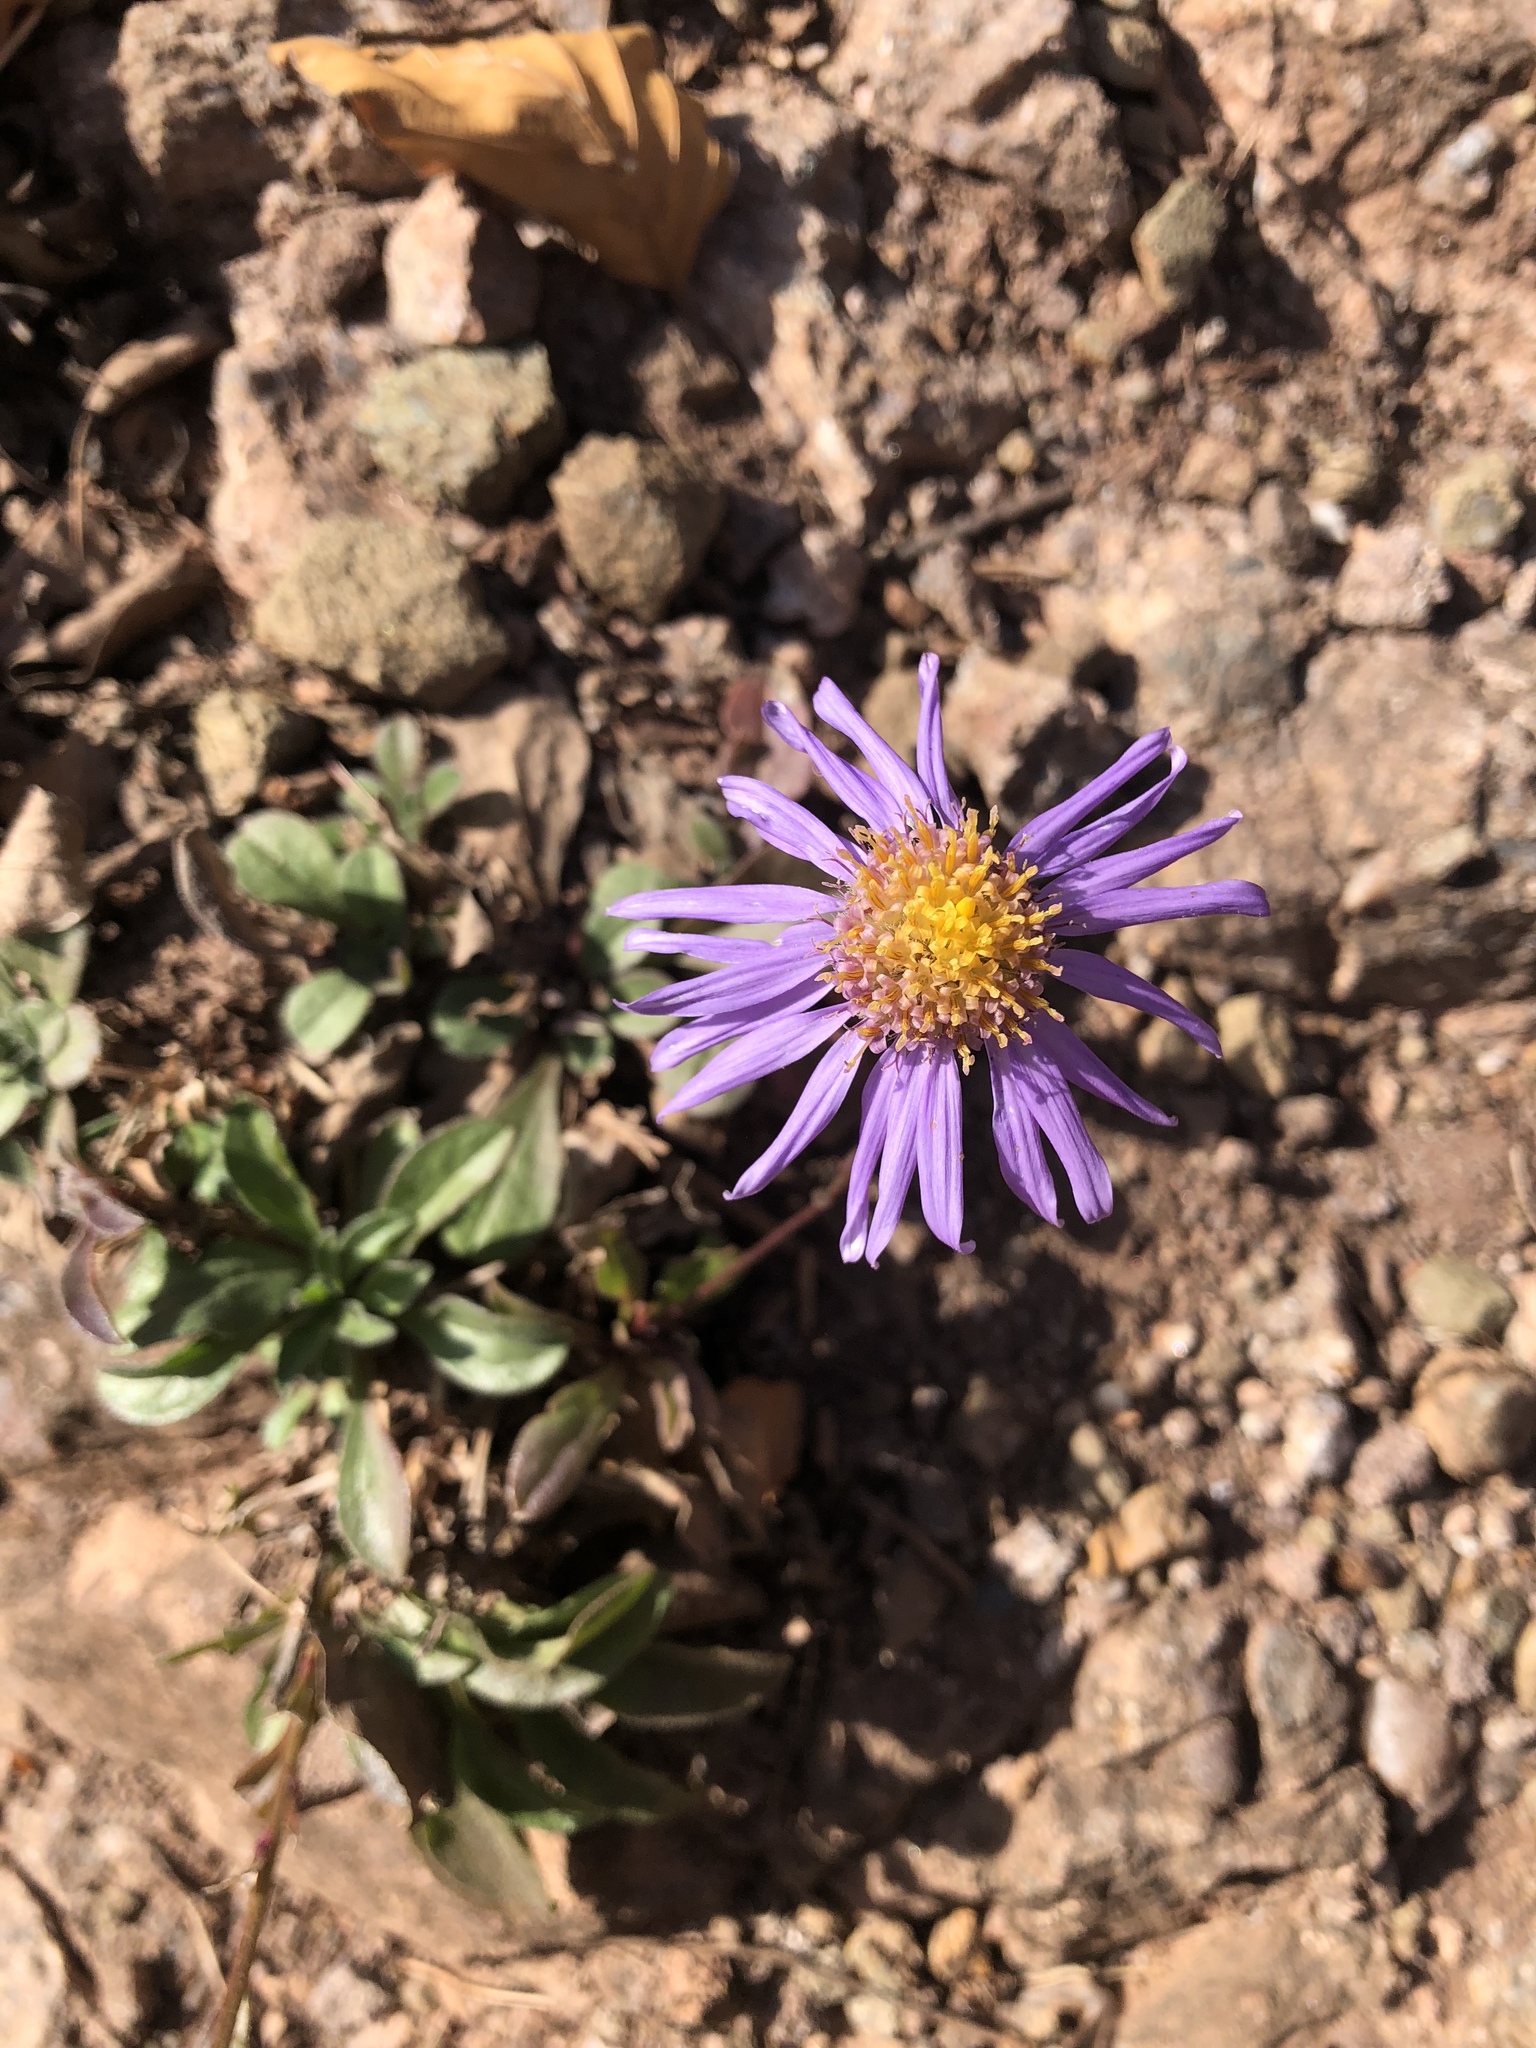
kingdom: Plantae
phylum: Tracheophyta
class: Magnoliopsida
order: Asterales
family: Asteraceae
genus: Aster
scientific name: Aster alpinus
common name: Alpine aster
